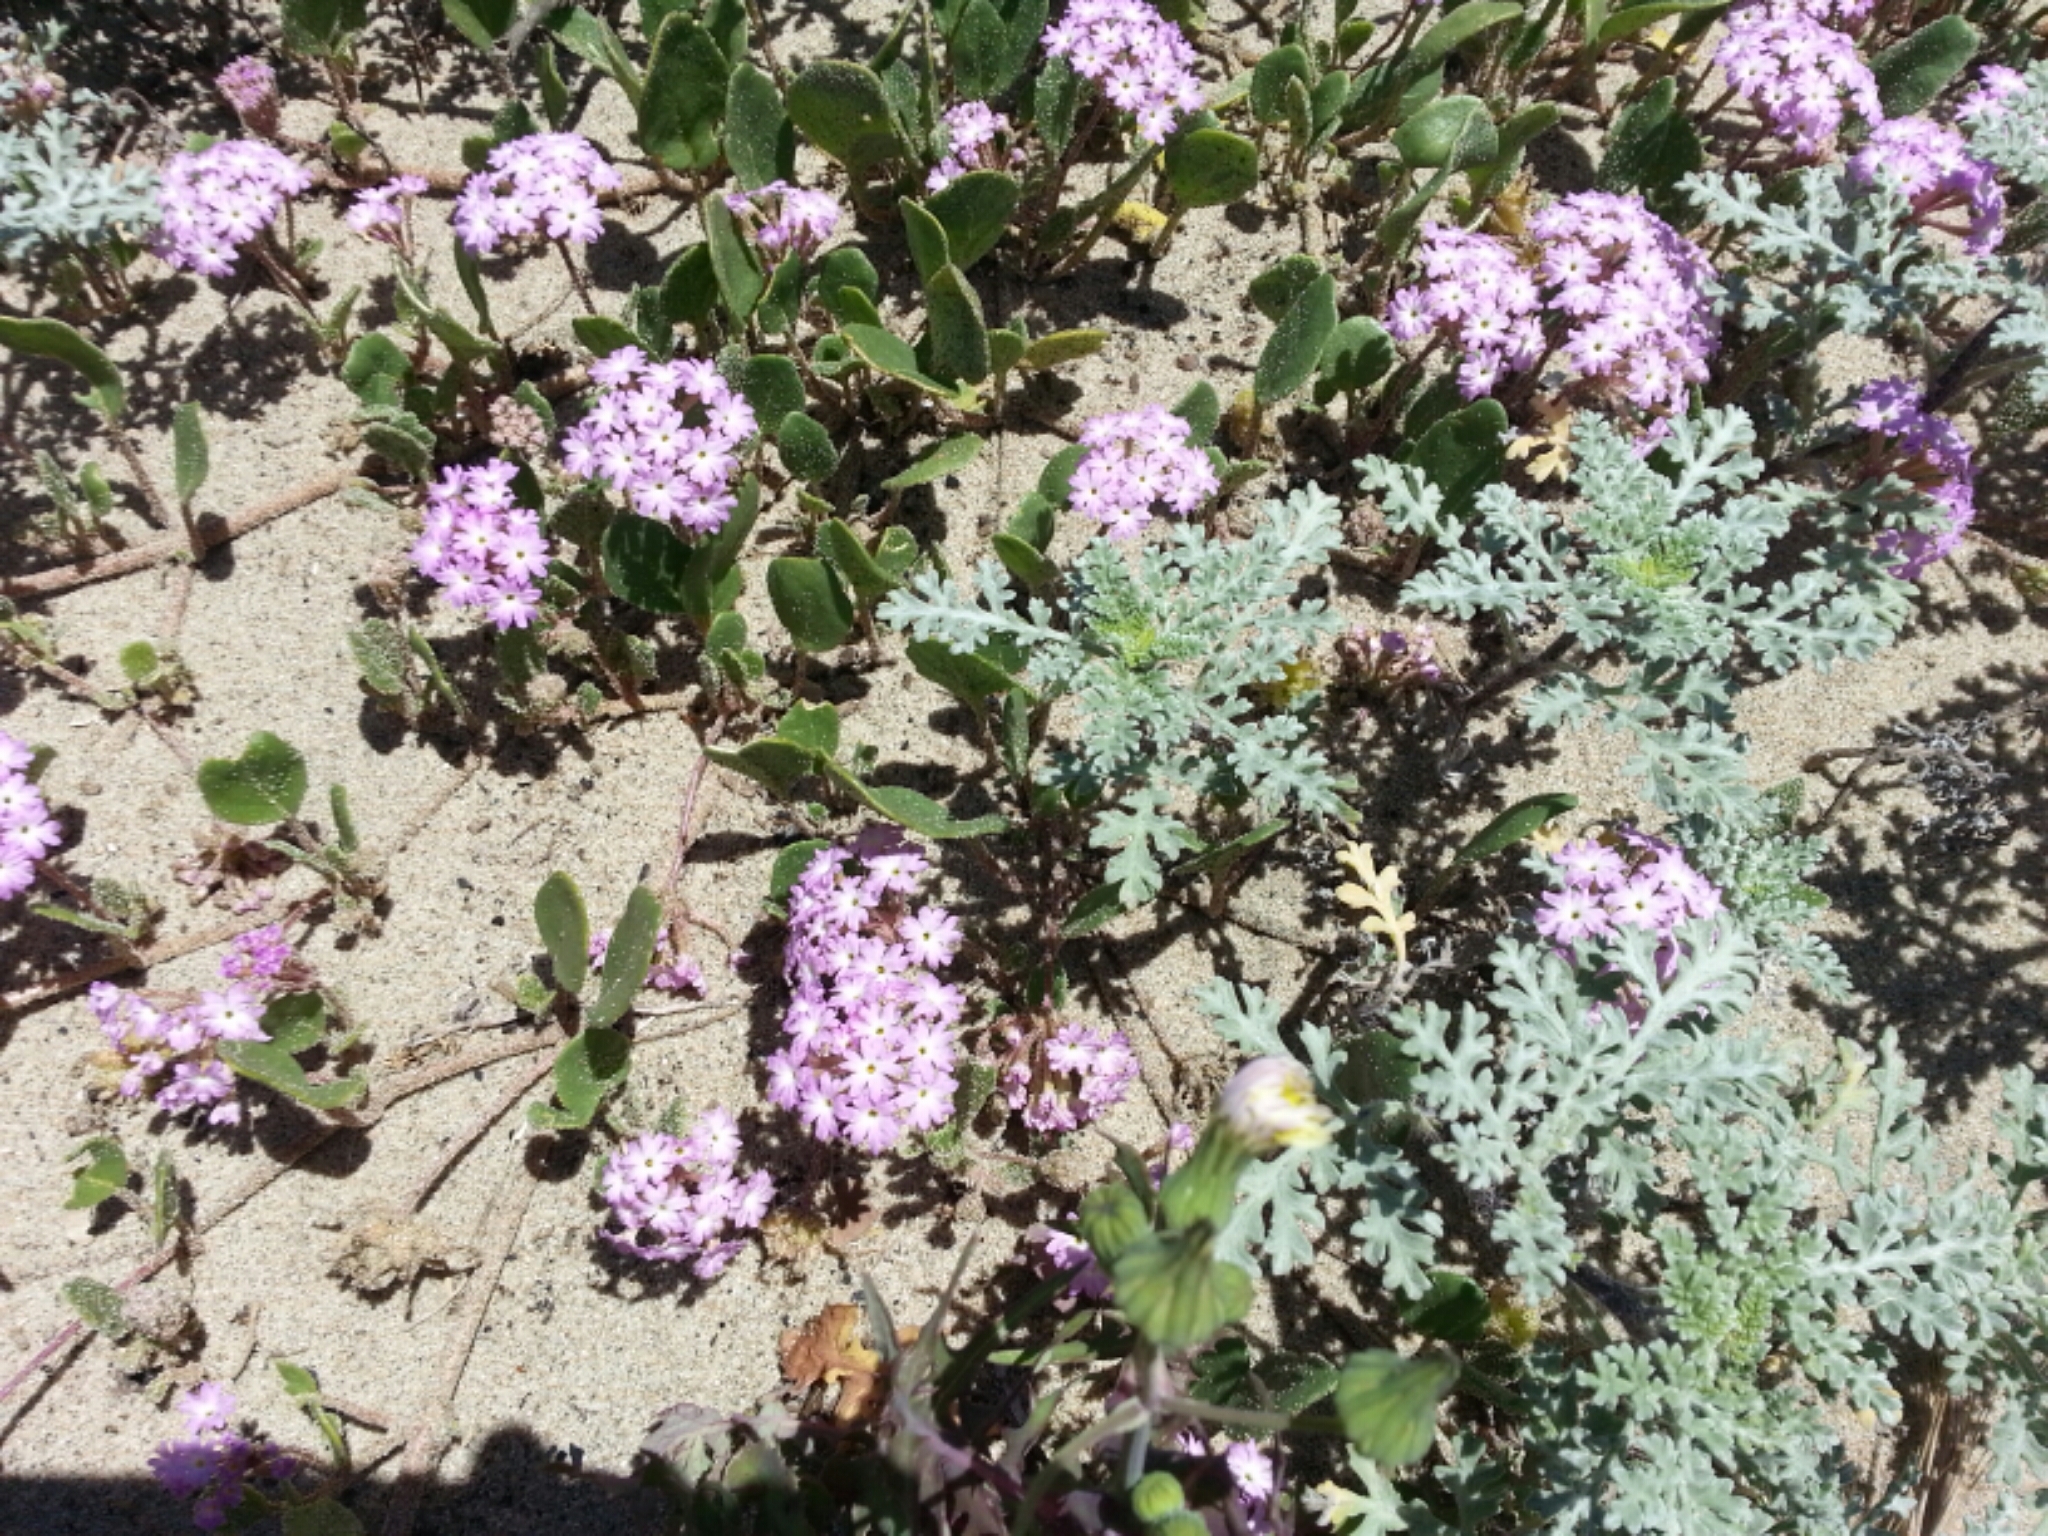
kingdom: Plantae
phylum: Tracheophyta
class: Magnoliopsida
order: Caryophyllales
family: Nyctaginaceae
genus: Abronia
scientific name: Abronia umbellata
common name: Sand-verbena
